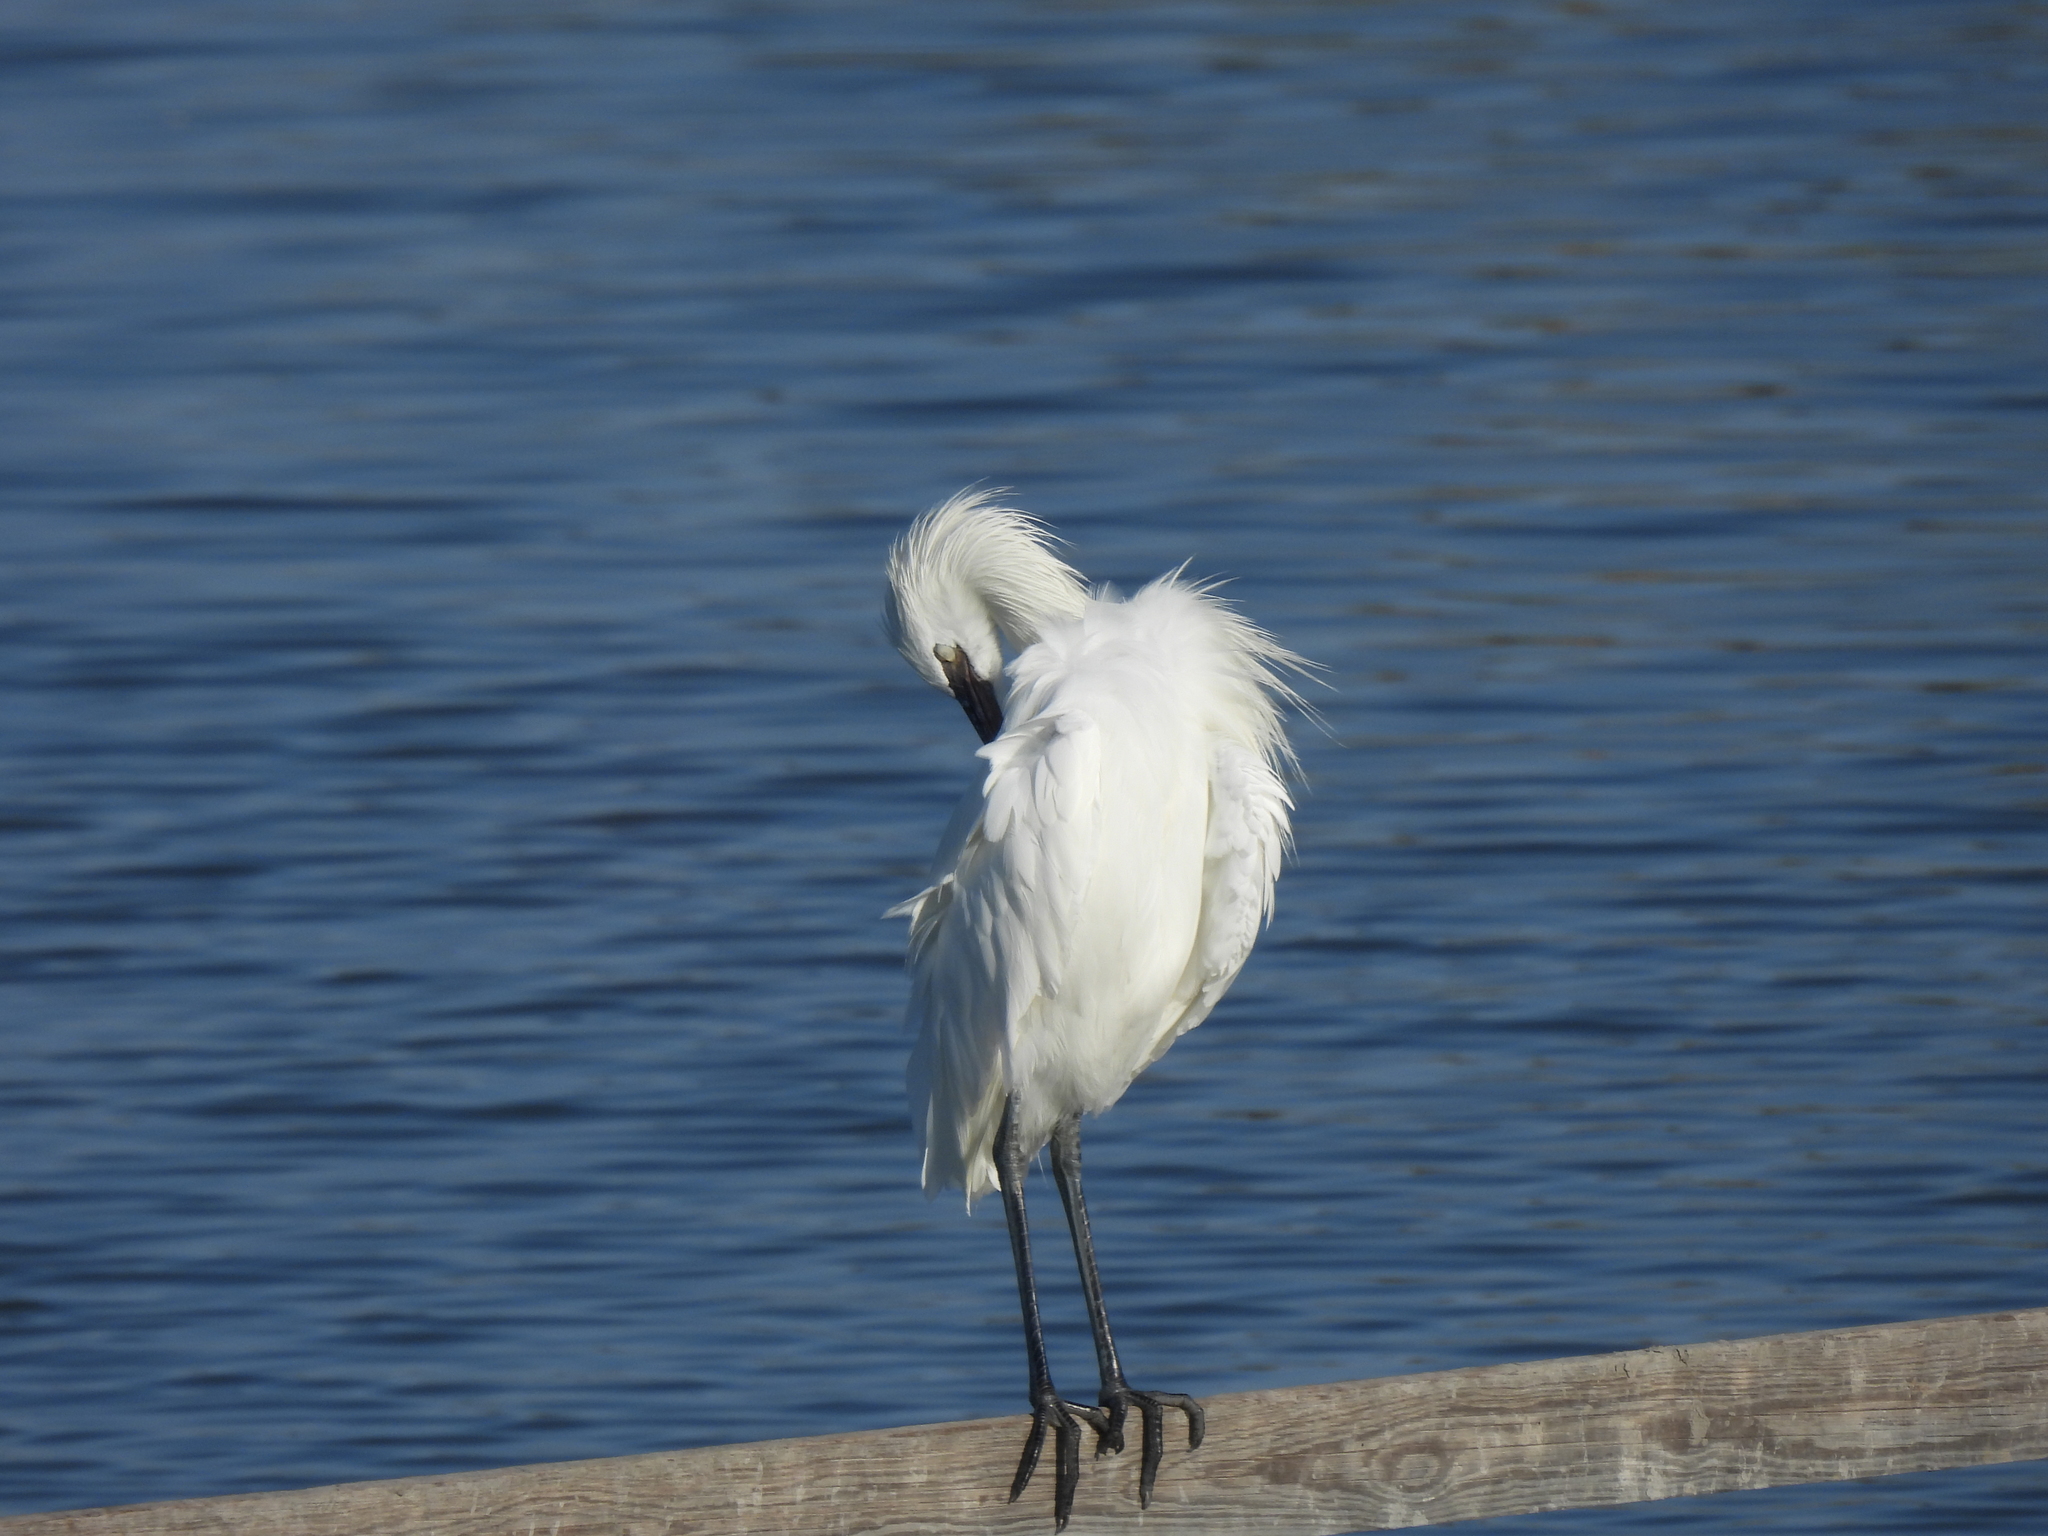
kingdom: Animalia
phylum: Chordata
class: Aves
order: Pelecaniformes
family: Ardeidae
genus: Egretta
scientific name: Egretta rufescens
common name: Reddish egret
